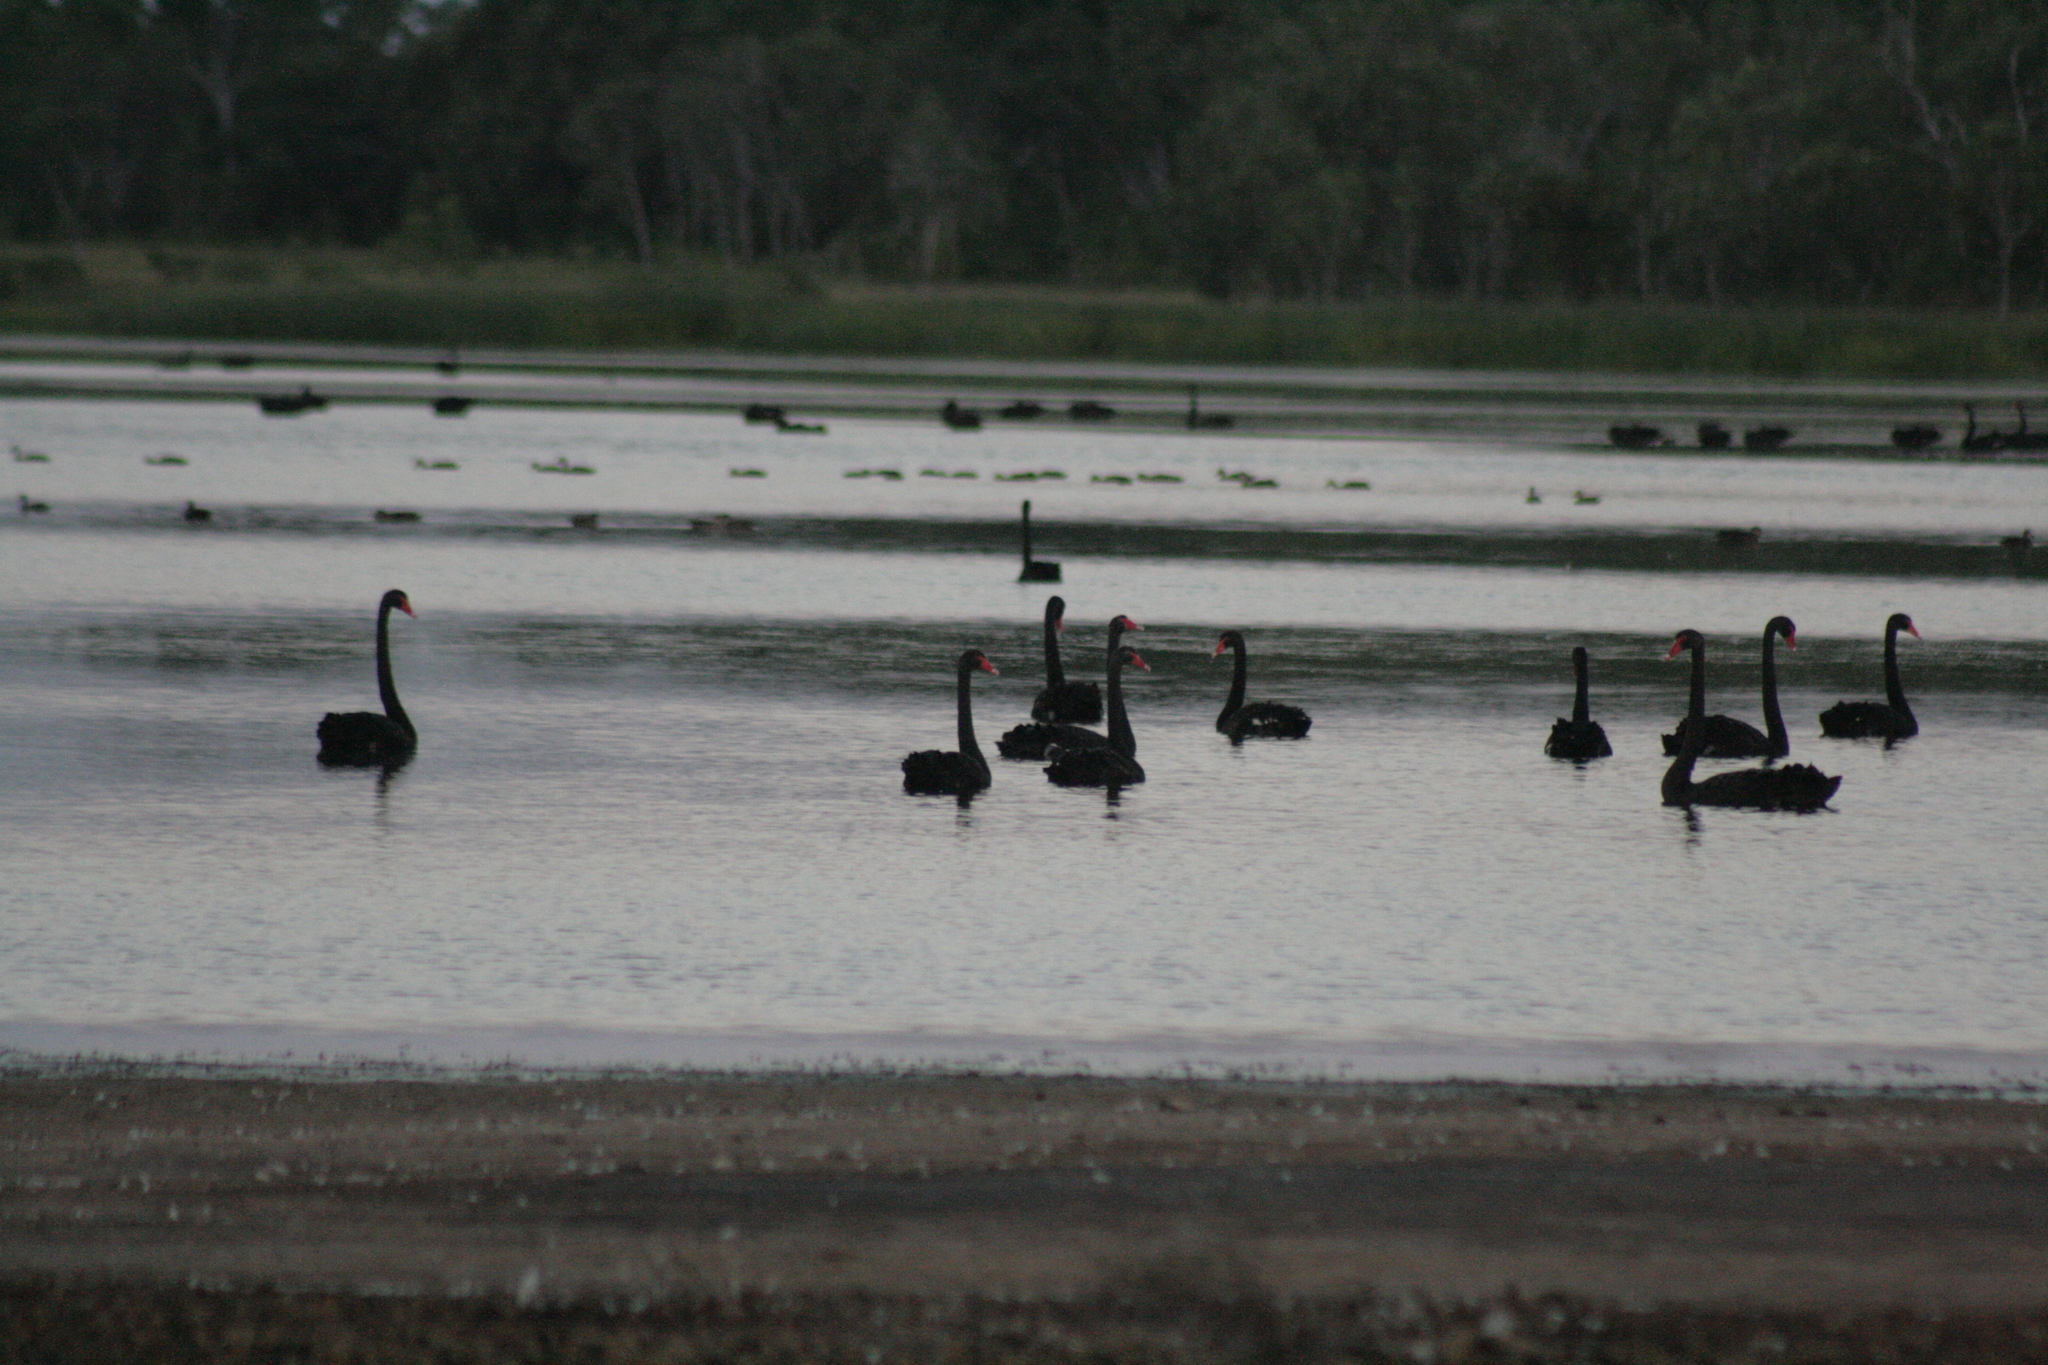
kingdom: Animalia
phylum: Chordata
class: Aves
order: Anseriformes
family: Anatidae
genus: Cygnus
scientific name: Cygnus atratus
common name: Black swan
